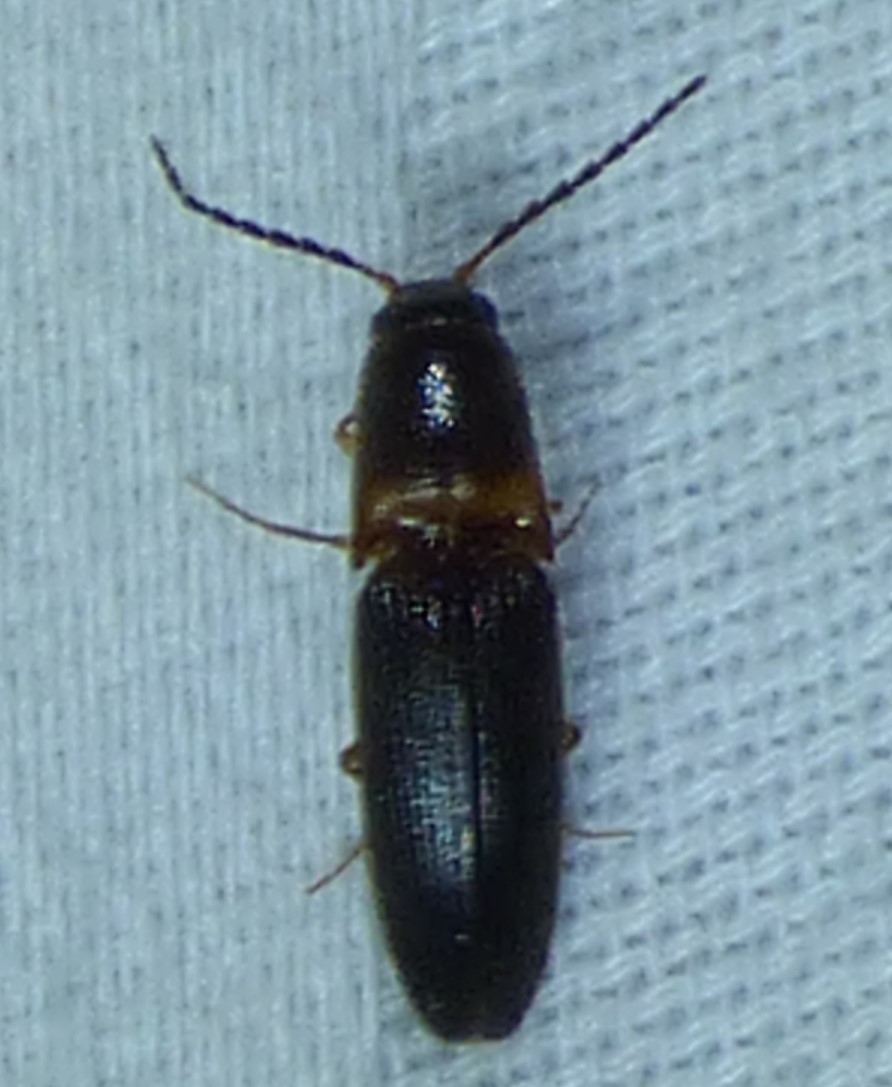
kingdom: Animalia
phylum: Arthropoda
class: Insecta
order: Coleoptera
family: Elateridae
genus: Megapenthes
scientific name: Megapenthes
